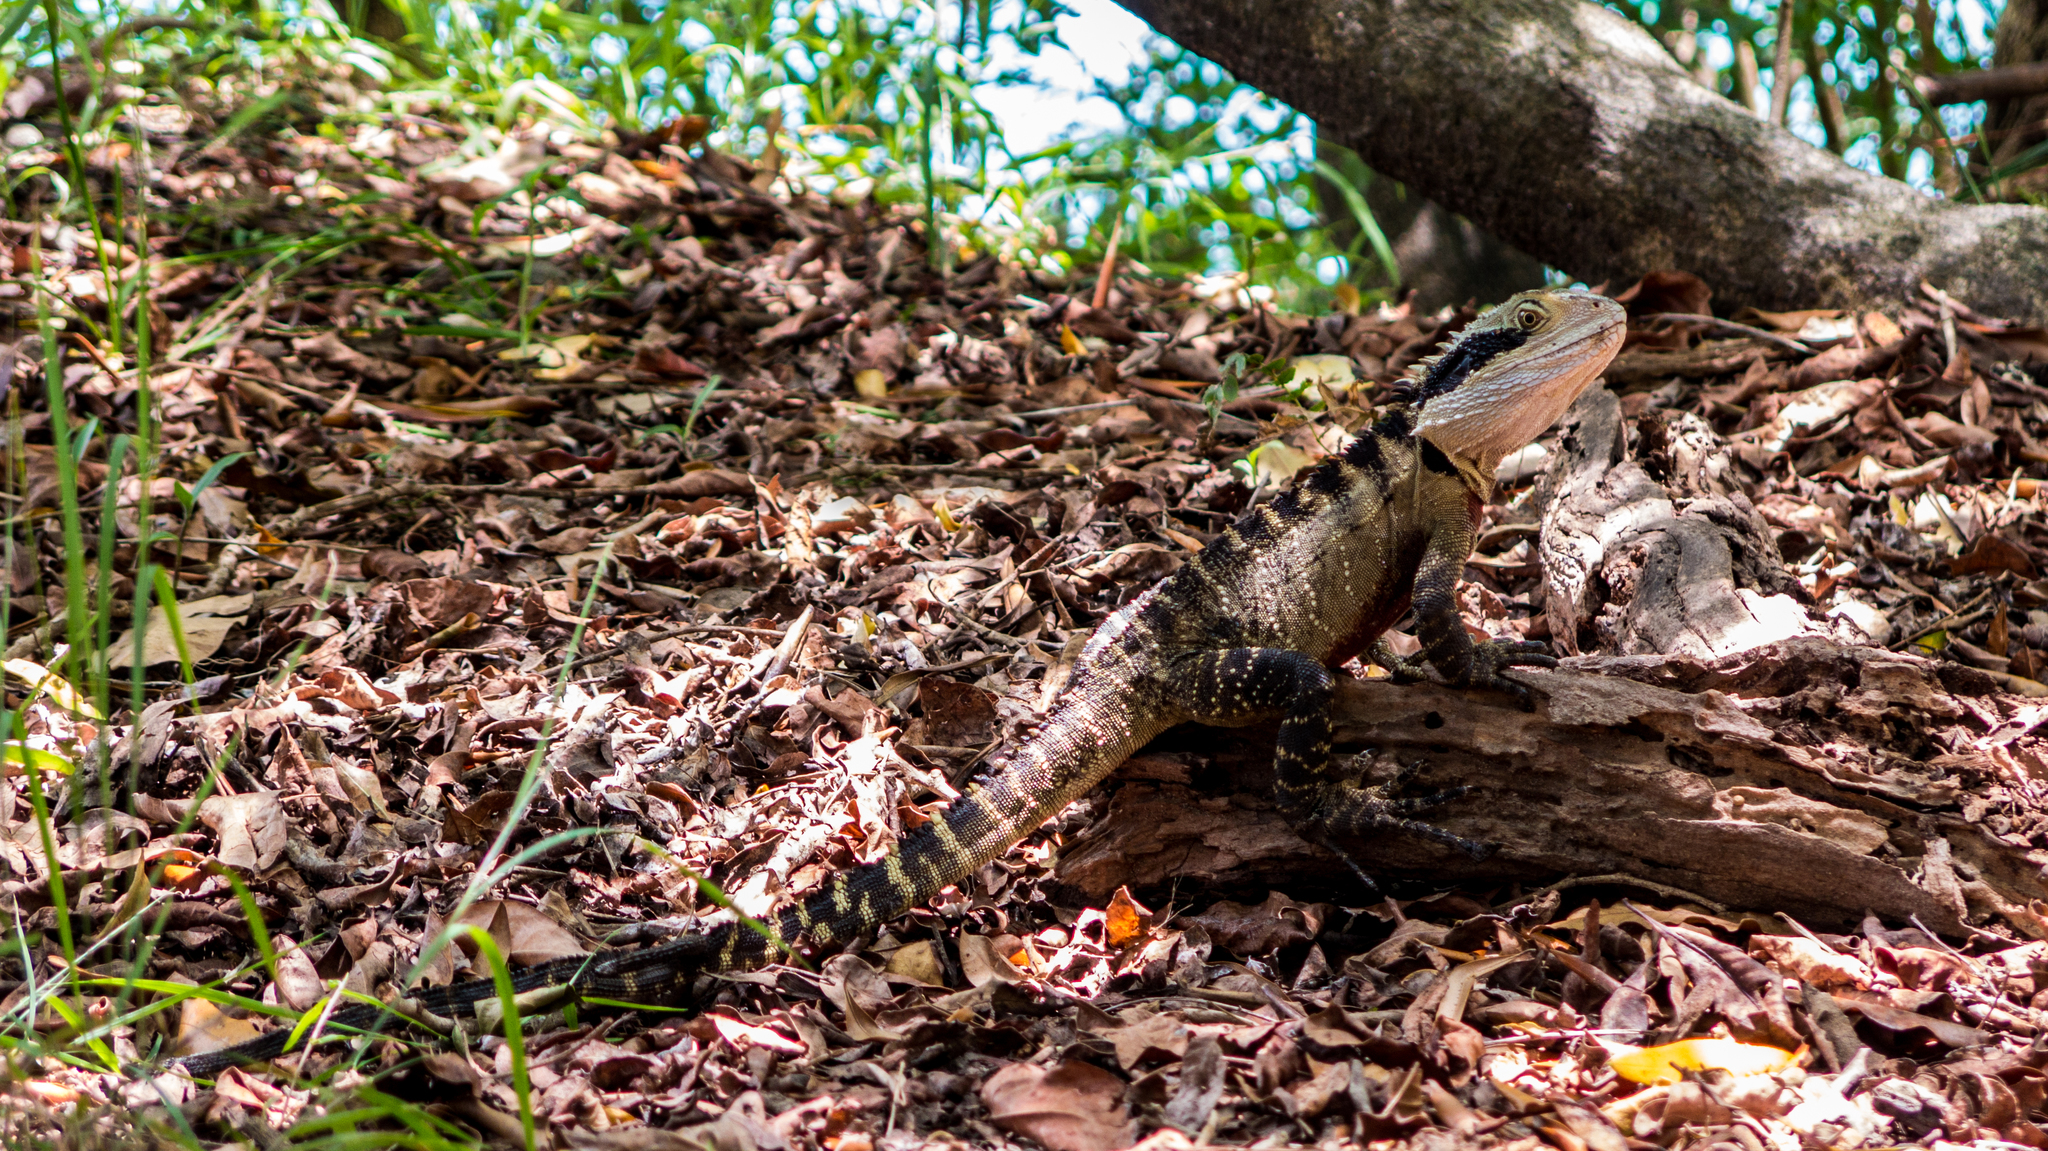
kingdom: Animalia
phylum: Chordata
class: Squamata
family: Agamidae
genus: Intellagama
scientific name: Intellagama lesueurii
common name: Eastern water dragon
